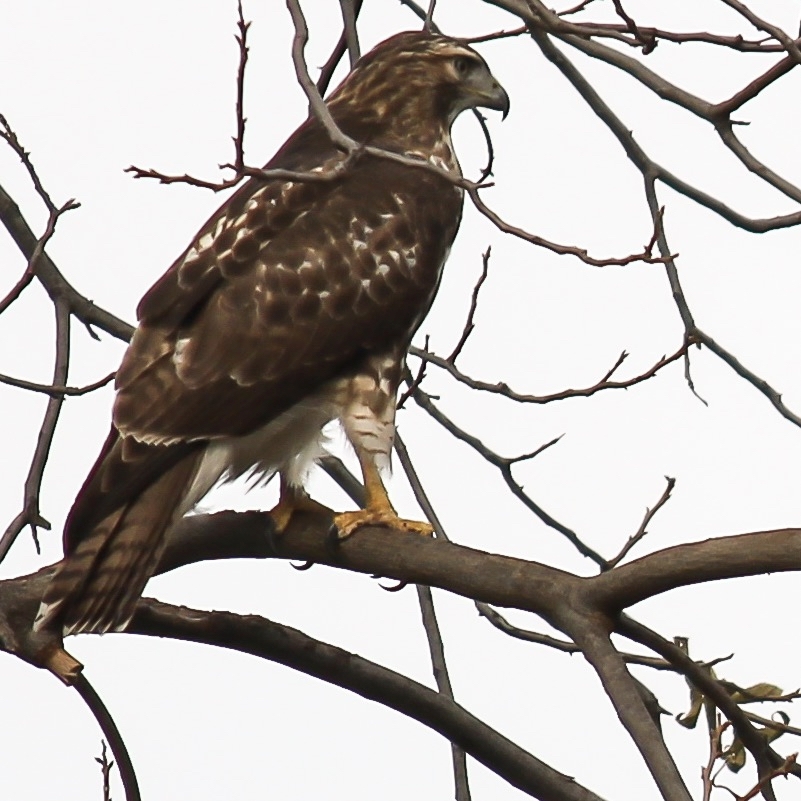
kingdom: Animalia
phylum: Chordata
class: Aves
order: Accipitriformes
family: Accipitridae
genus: Buteo
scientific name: Buteo jamaicensis
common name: Red-tailed hawk
